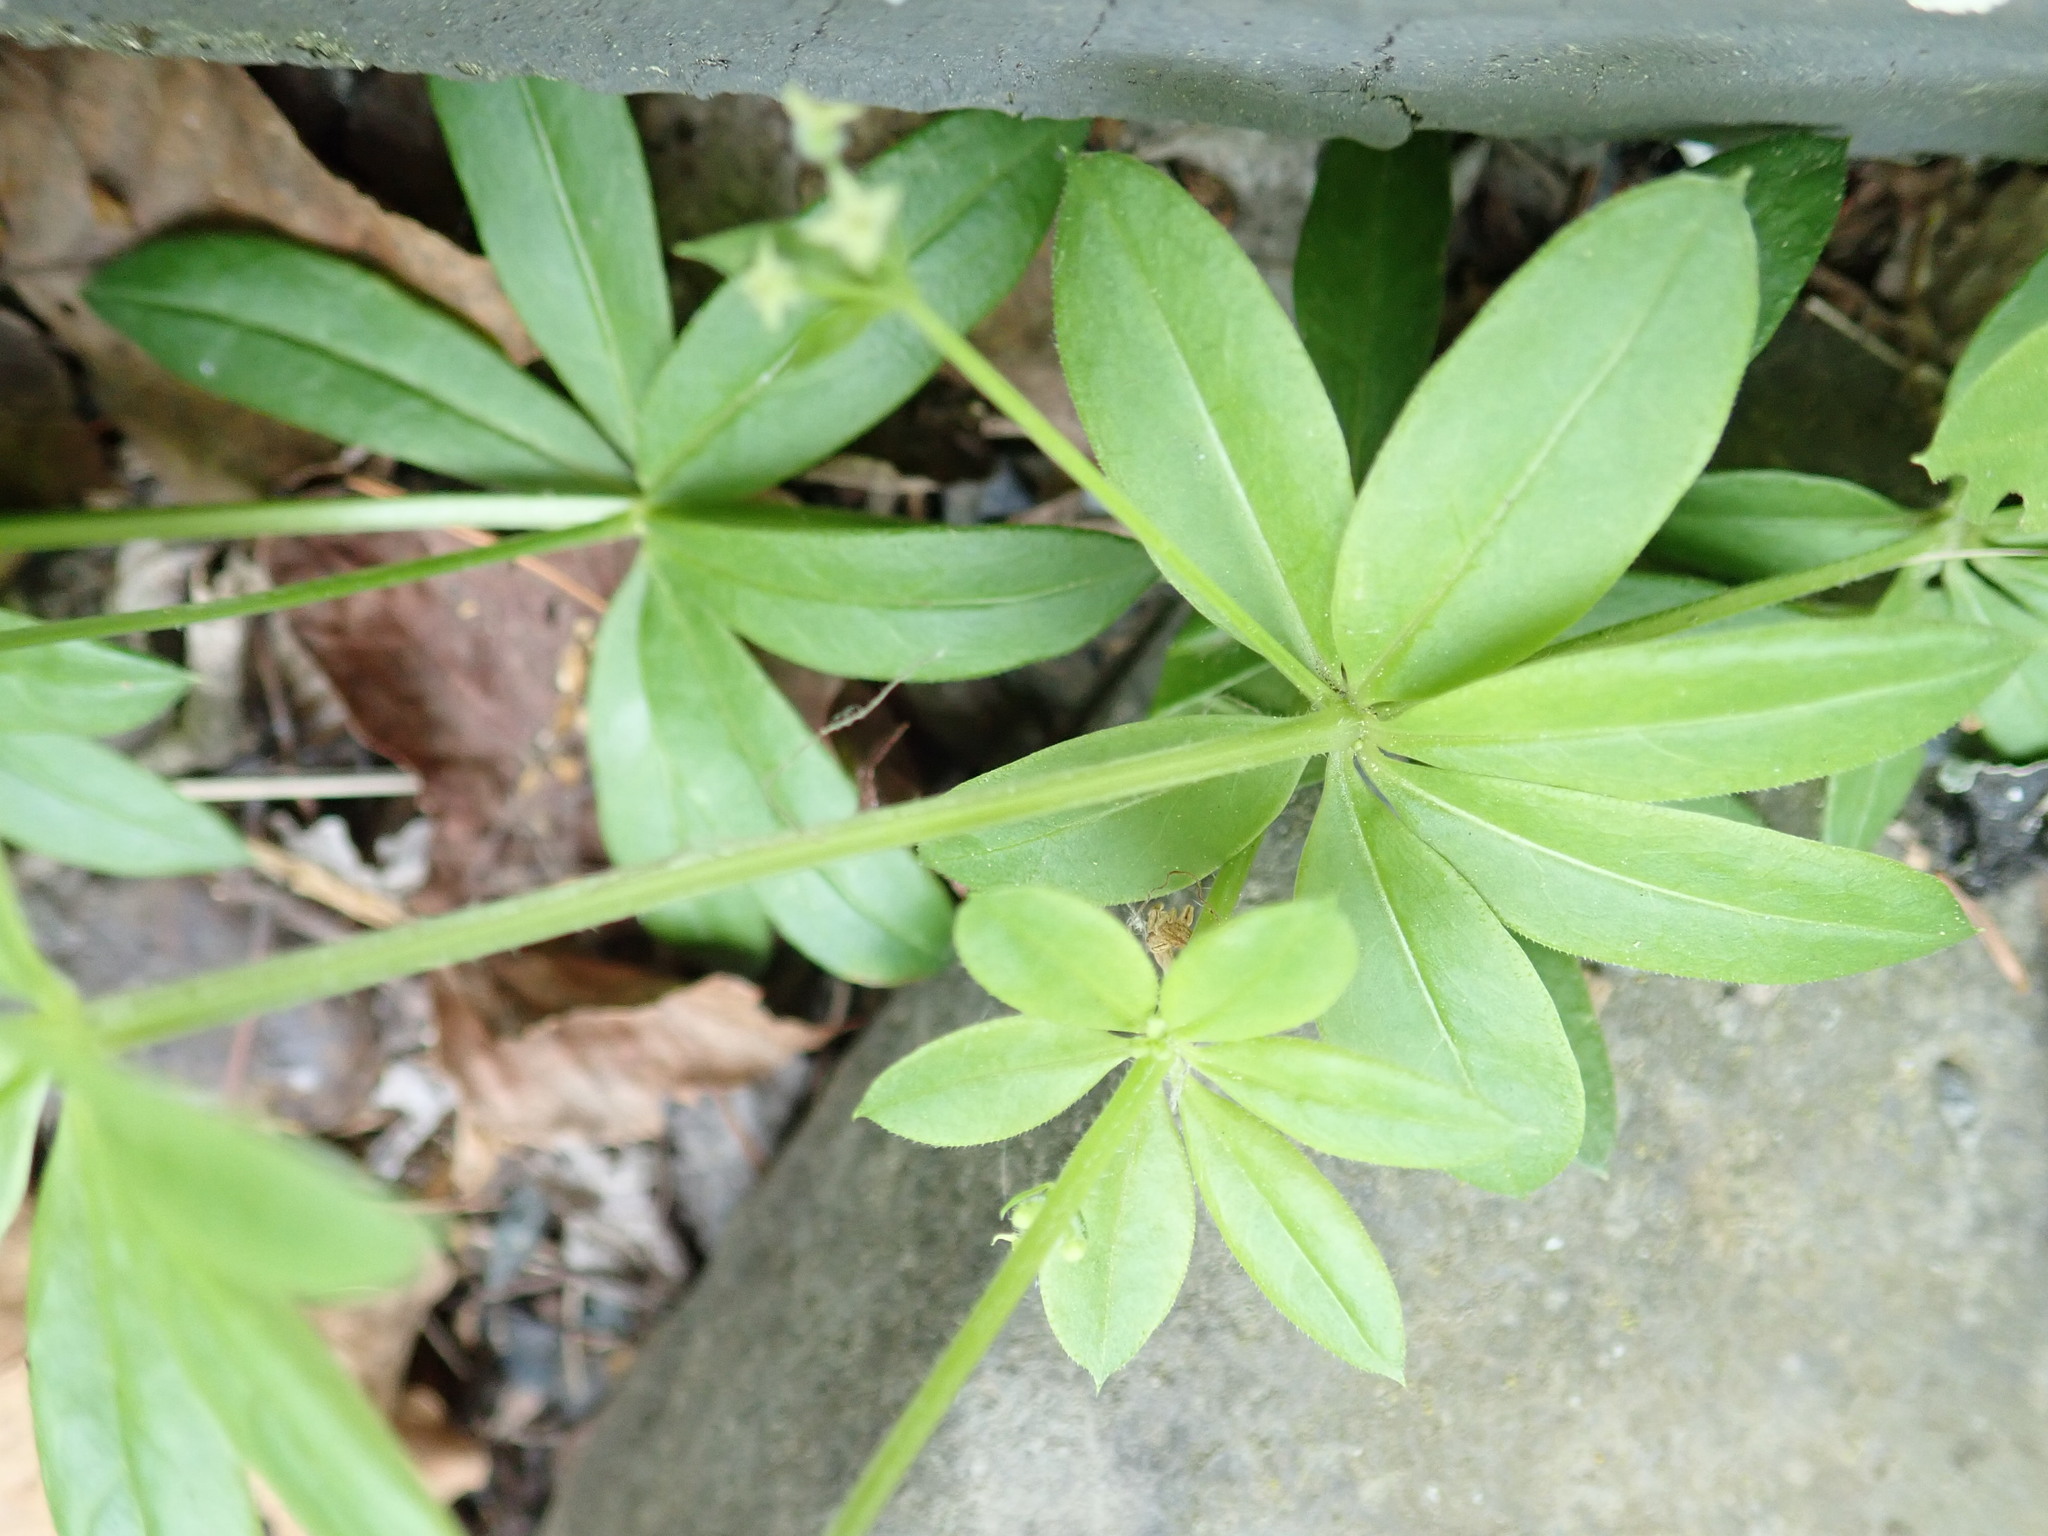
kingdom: Plantae
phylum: Tracheophyta
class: Magnoliopsida
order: Gentianales
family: Rubiaceae
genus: Galium
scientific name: Galium triflorum
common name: Fragrant bedstraw
